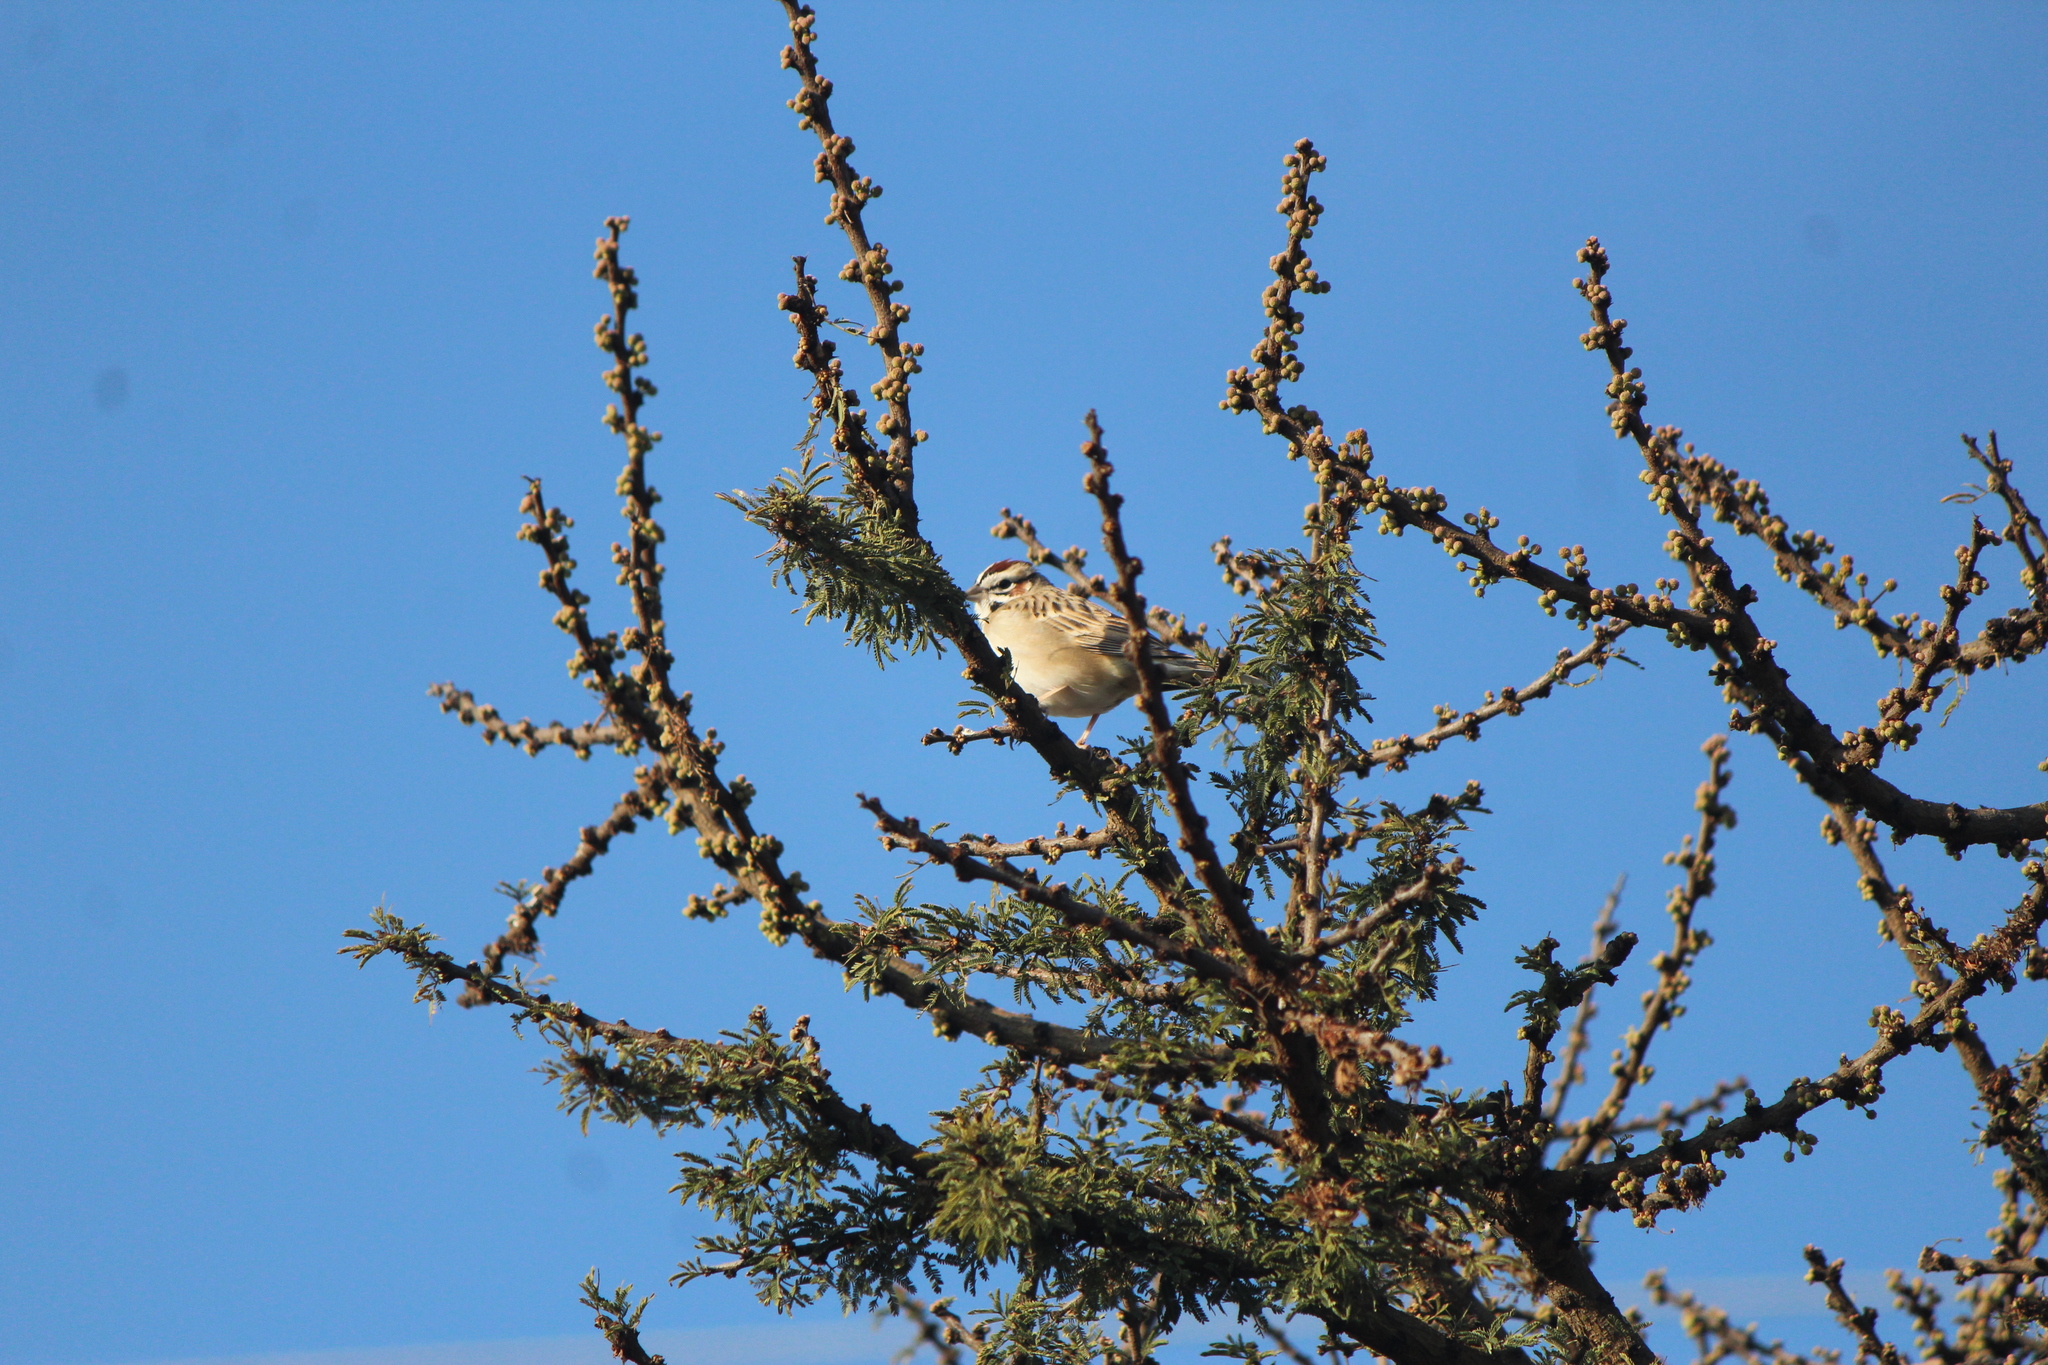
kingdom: Animalia
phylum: Chordata
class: Aves
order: Passeriformes
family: Passerellidae
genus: Chondestes
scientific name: Chondestes grammacus
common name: Lark sparrow
